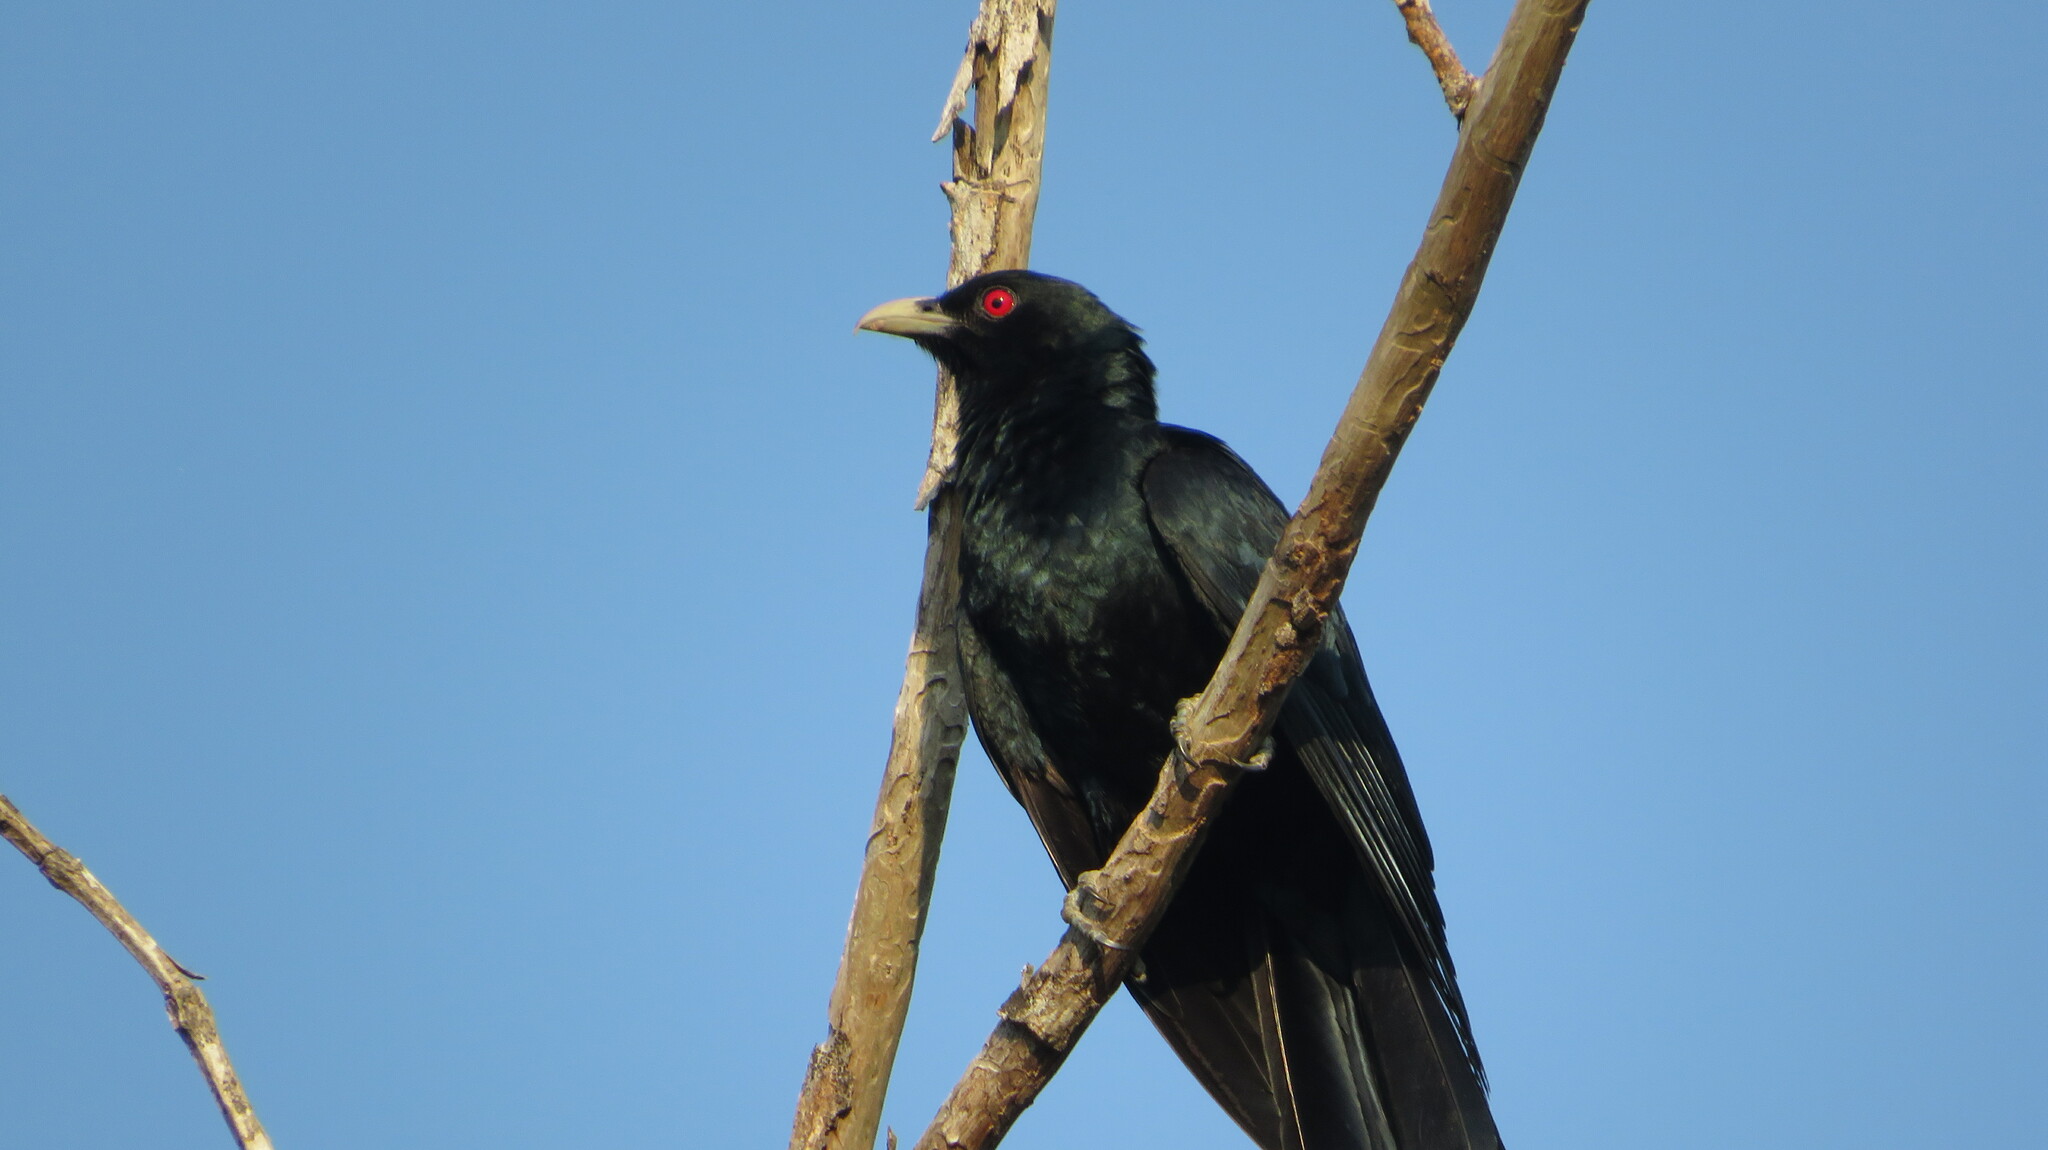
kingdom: Animalia
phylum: Chordata
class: Aves
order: Cuculiformes
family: Cuculidae
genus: Eudynamys
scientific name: Eudynamys scolopaceus
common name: Asian koel
